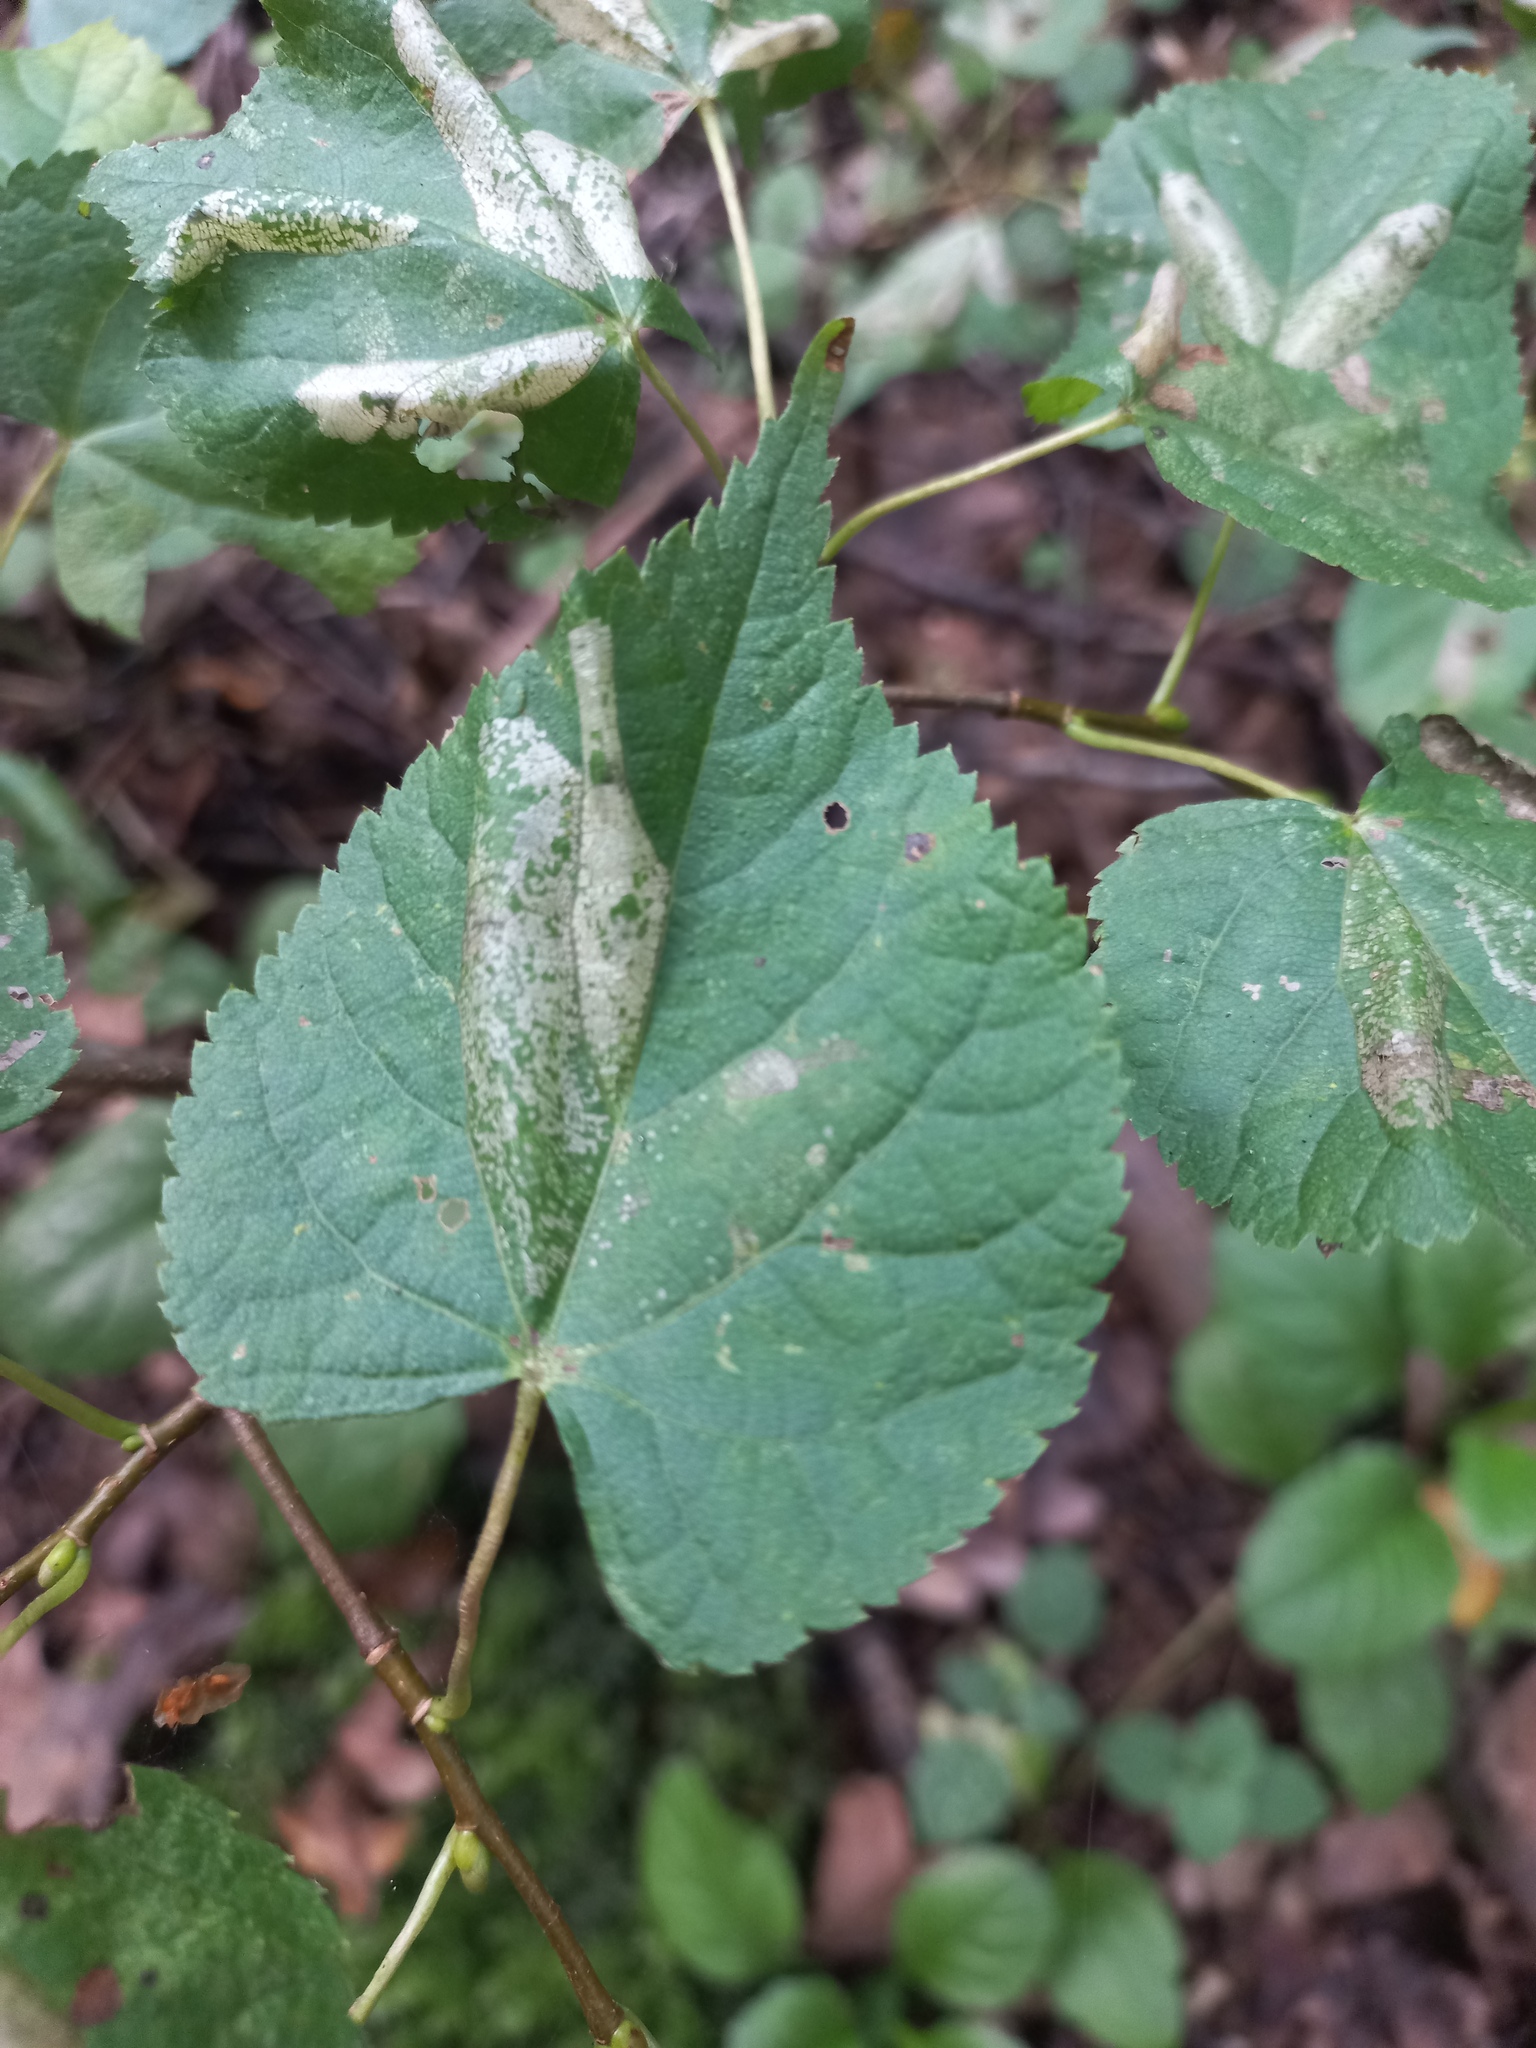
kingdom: Plantae
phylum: Tracheophyta
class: Magnoliopsida
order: Malvales
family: Malvaceae
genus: Tilia
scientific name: Tilia cordata
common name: Small-leaved lime
